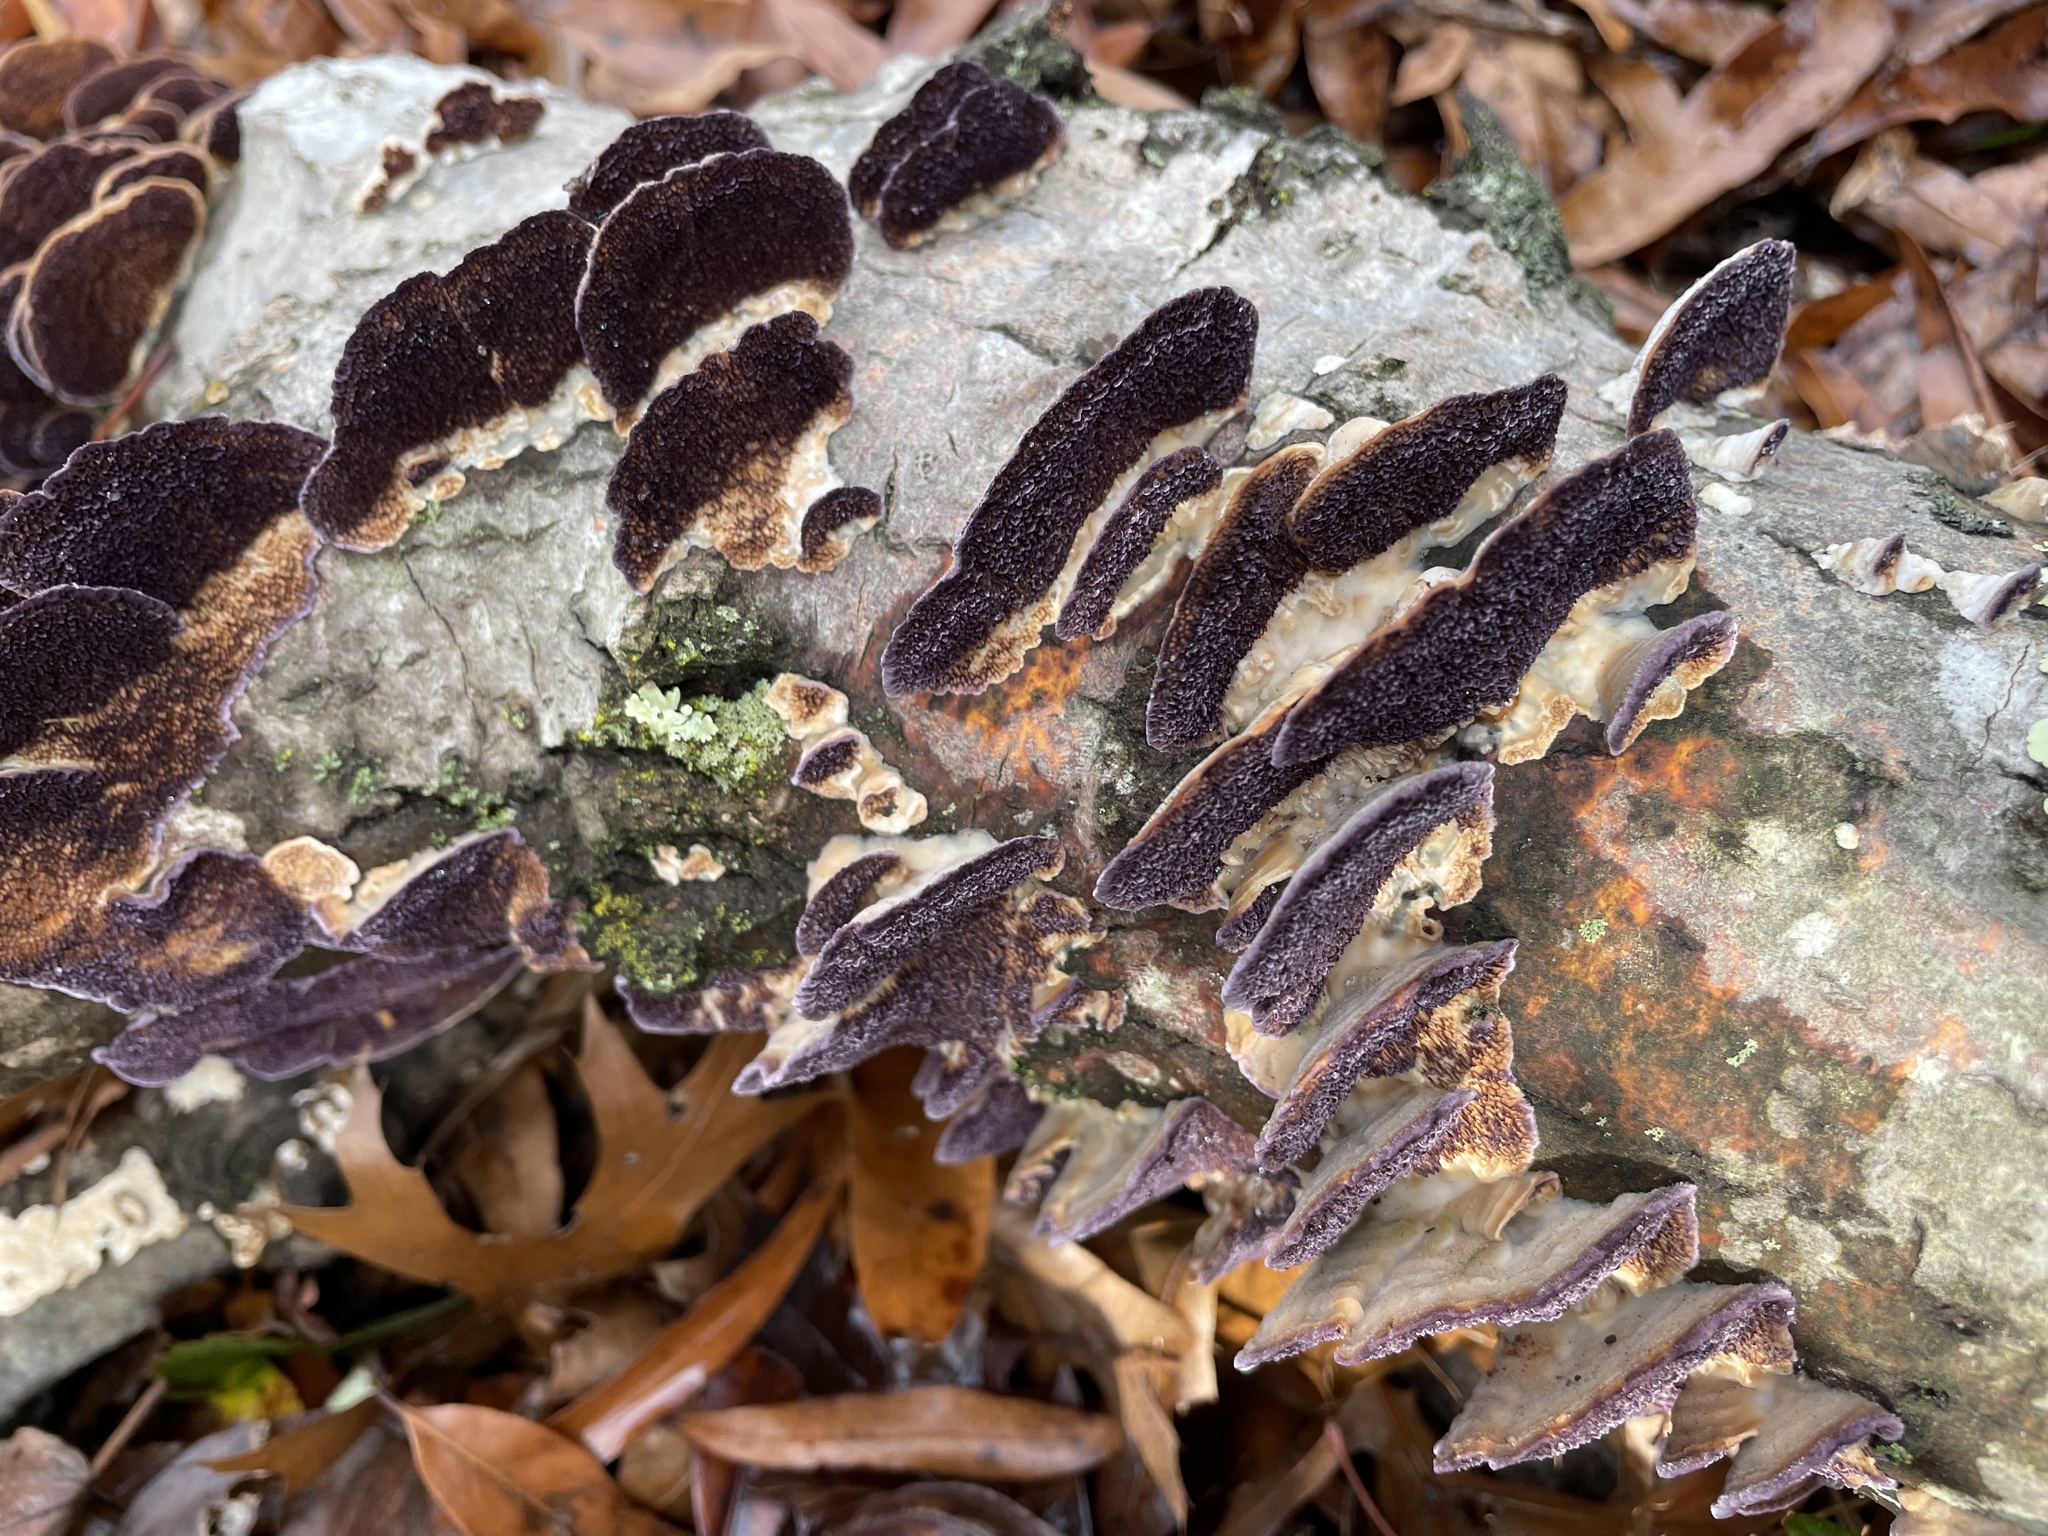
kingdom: Fungi
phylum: Basidiomycota
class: Agaricomycetes
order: Hymenochaetales
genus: Trichaptum
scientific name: Trichaptum fuscoviolaceum
